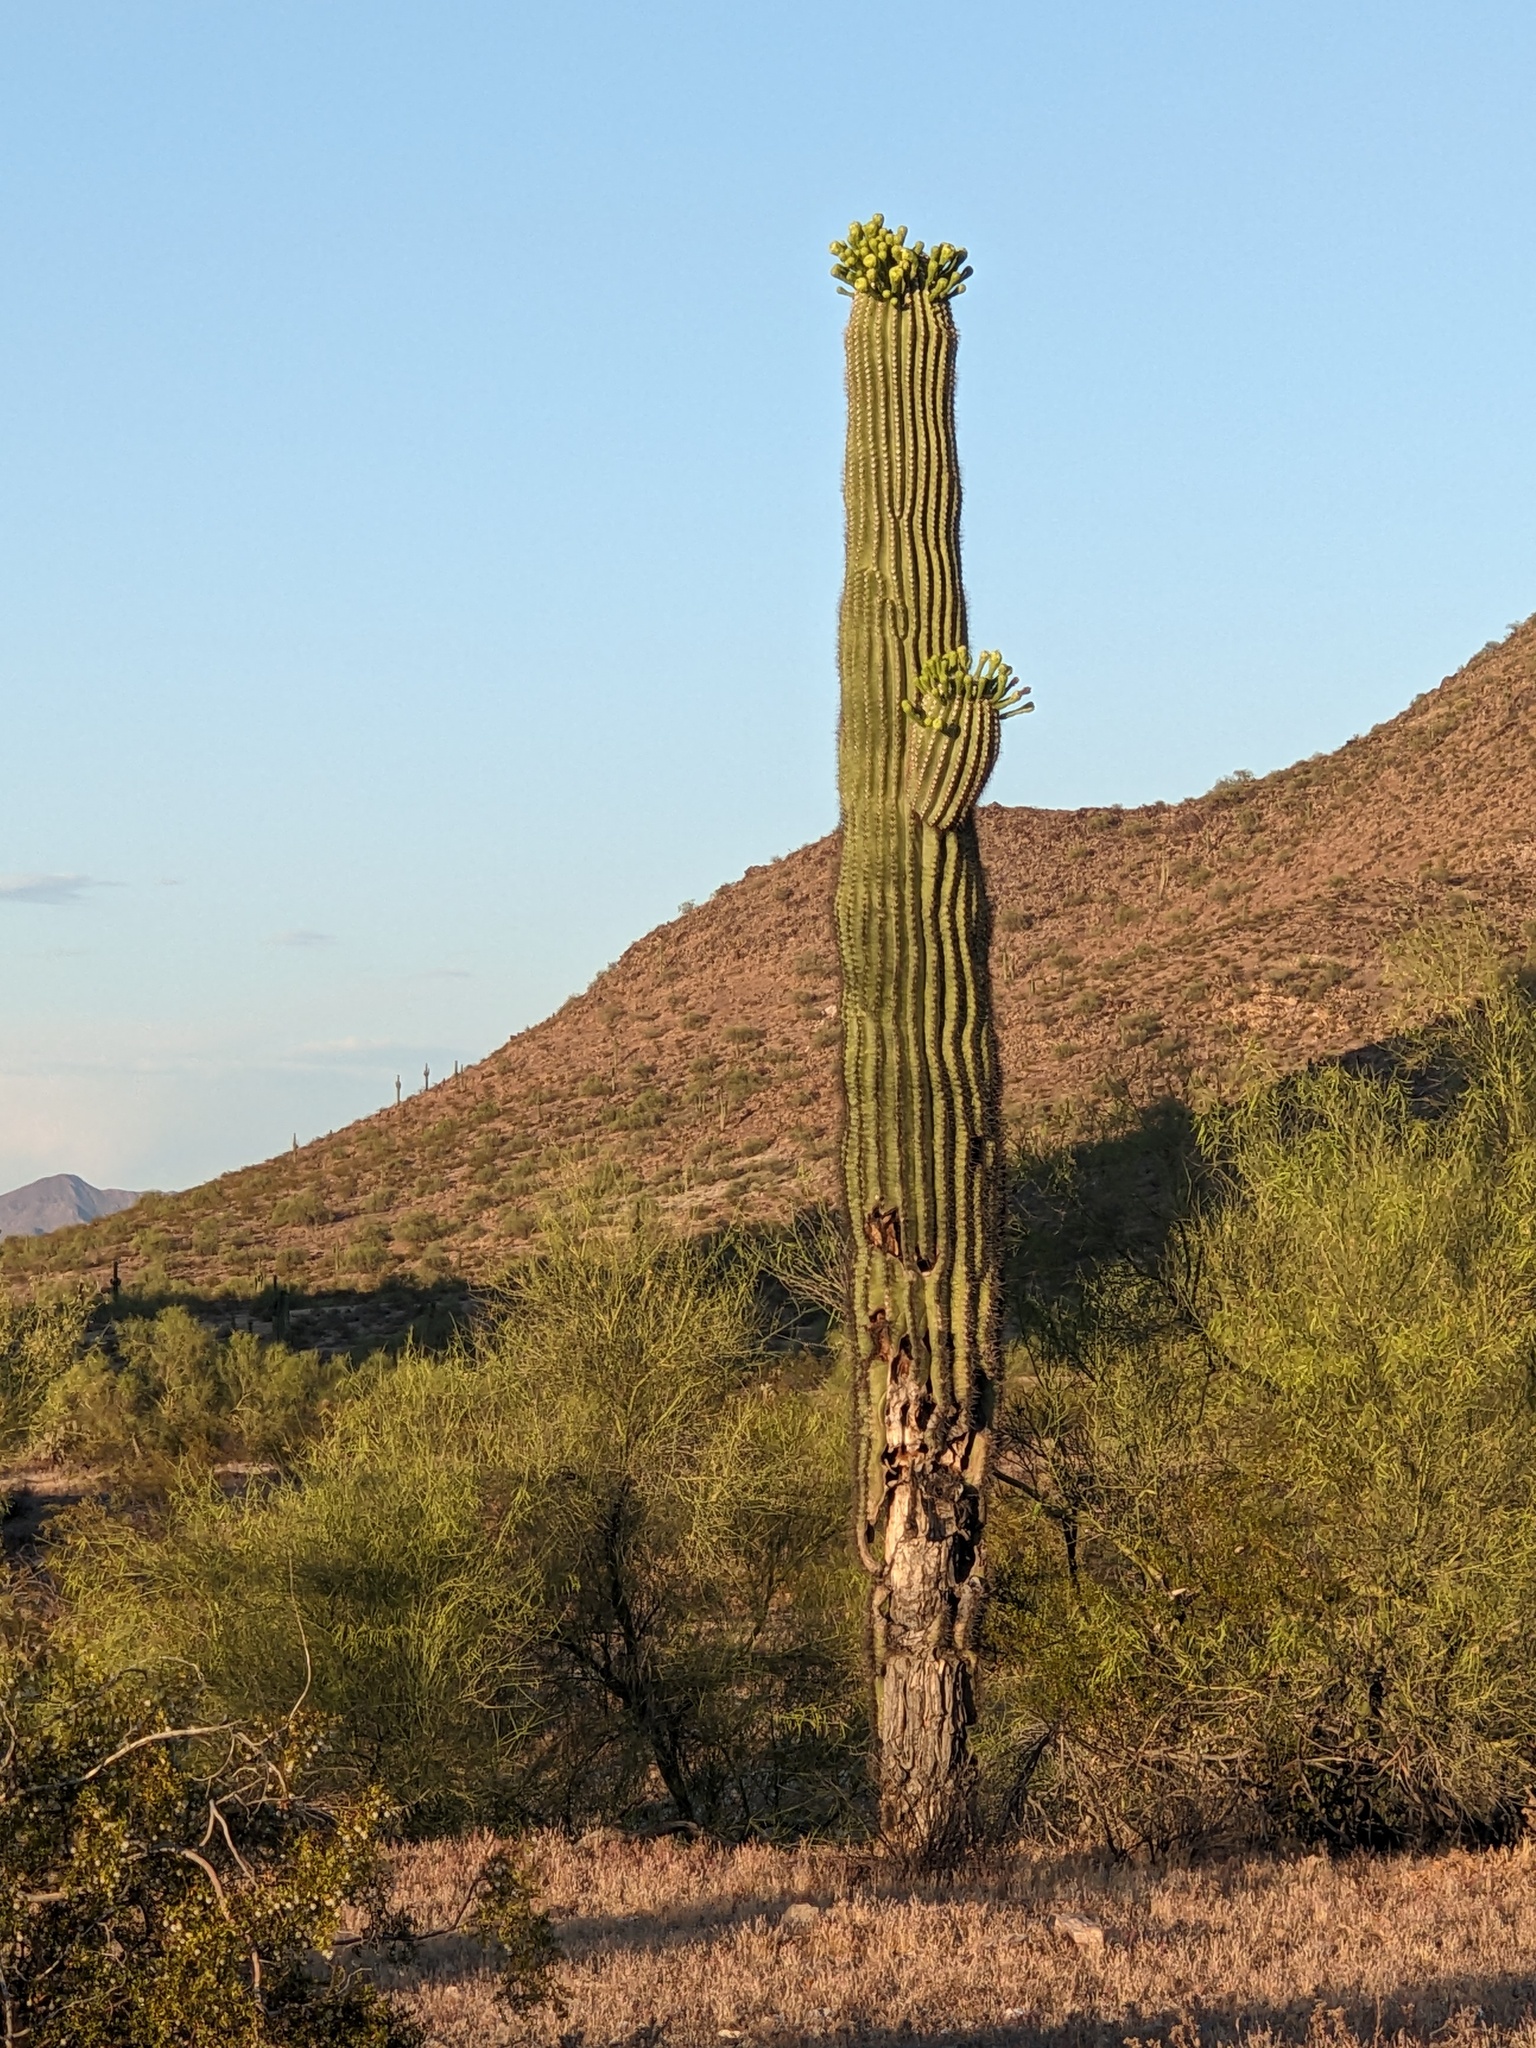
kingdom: Plantae
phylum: Tracheophyta
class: Magnoliopsida
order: Caryophyllales
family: Cactaceae
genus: Carnegiea
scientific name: Carnegiea gigantea
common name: Saguaro
